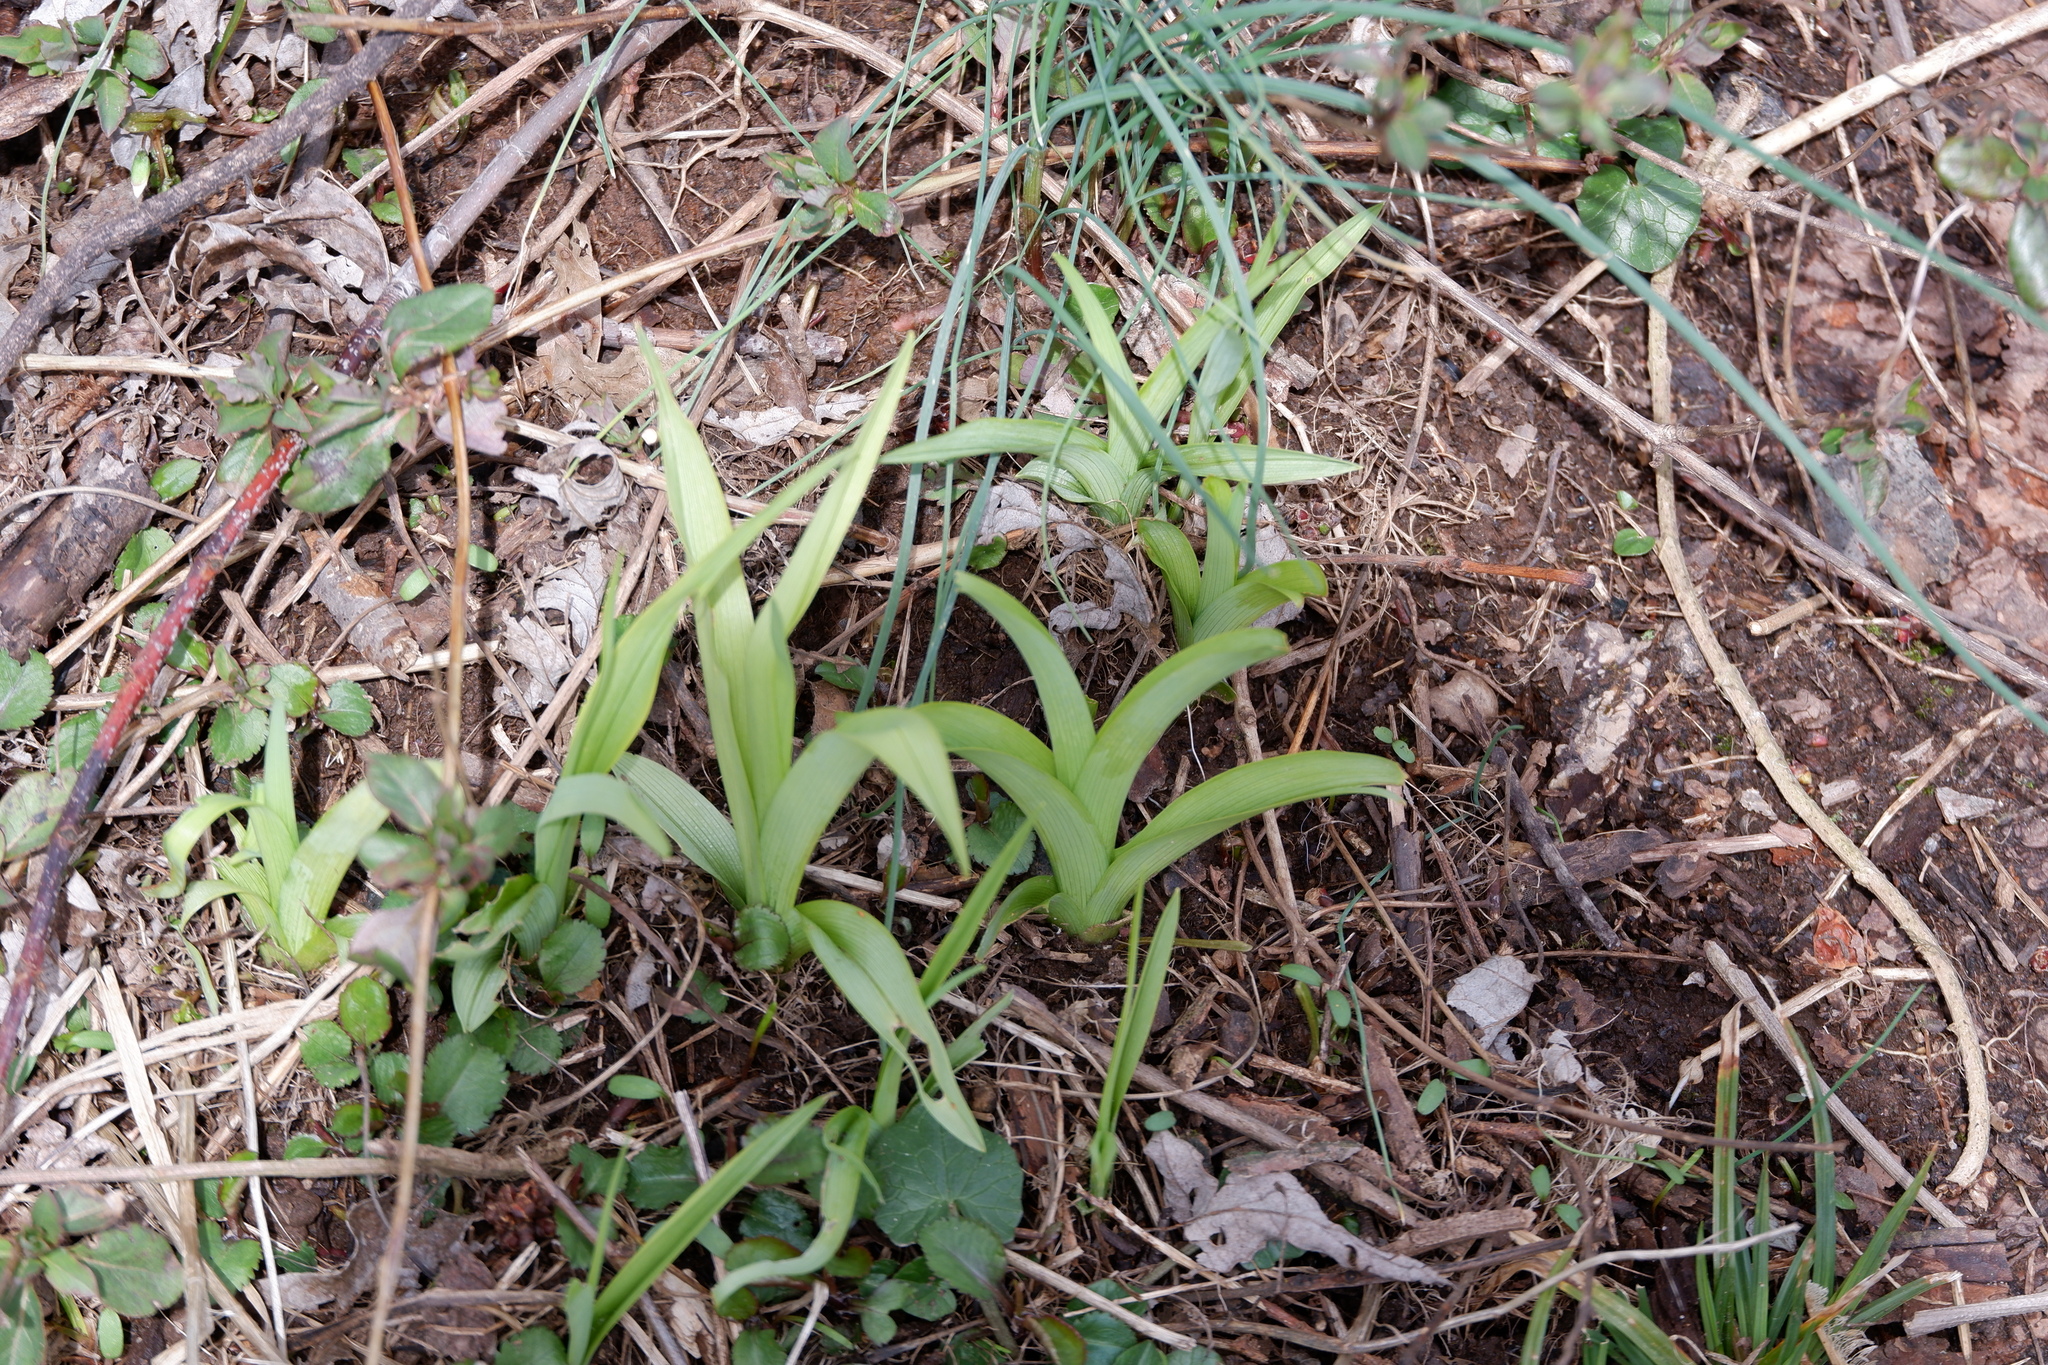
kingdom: Plantae
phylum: Tracheophyta
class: Liliopsida
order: Asparagales
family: Asphodelaceae
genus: Hemerocallis
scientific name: Hemerocallis fulva
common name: Orange day-lily
